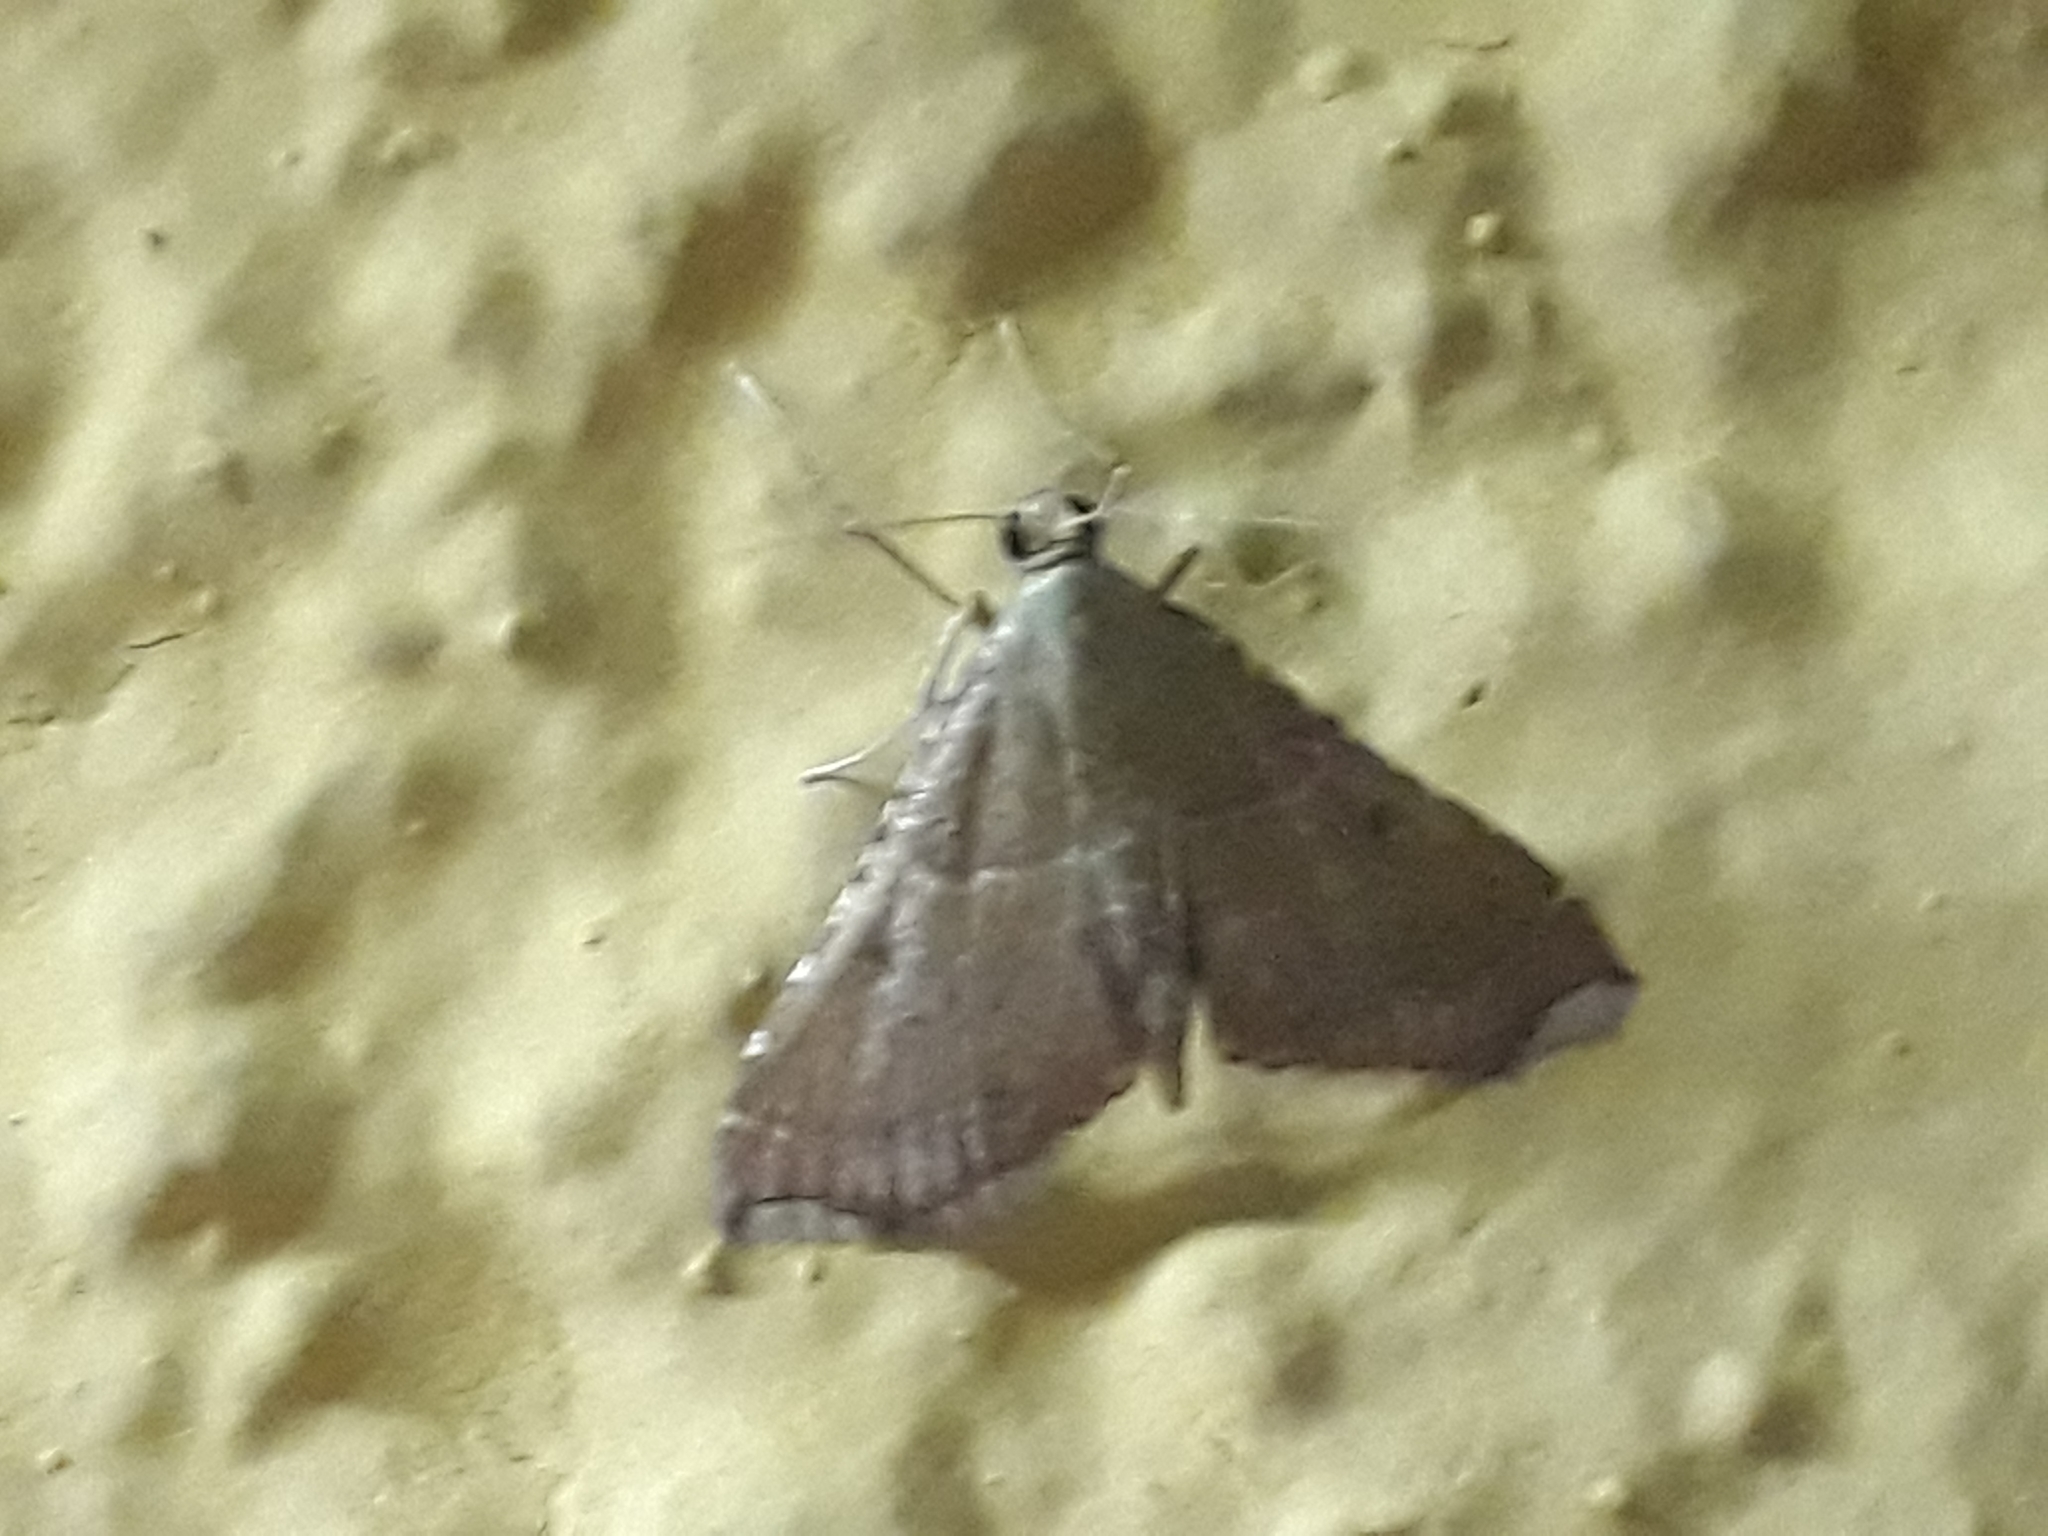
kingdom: Animalia
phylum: Arthropoda
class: Insecta
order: Lepidoptera
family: Pyralidae
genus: Endotricha
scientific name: Endotricha flammealis
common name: Rosy tabby
